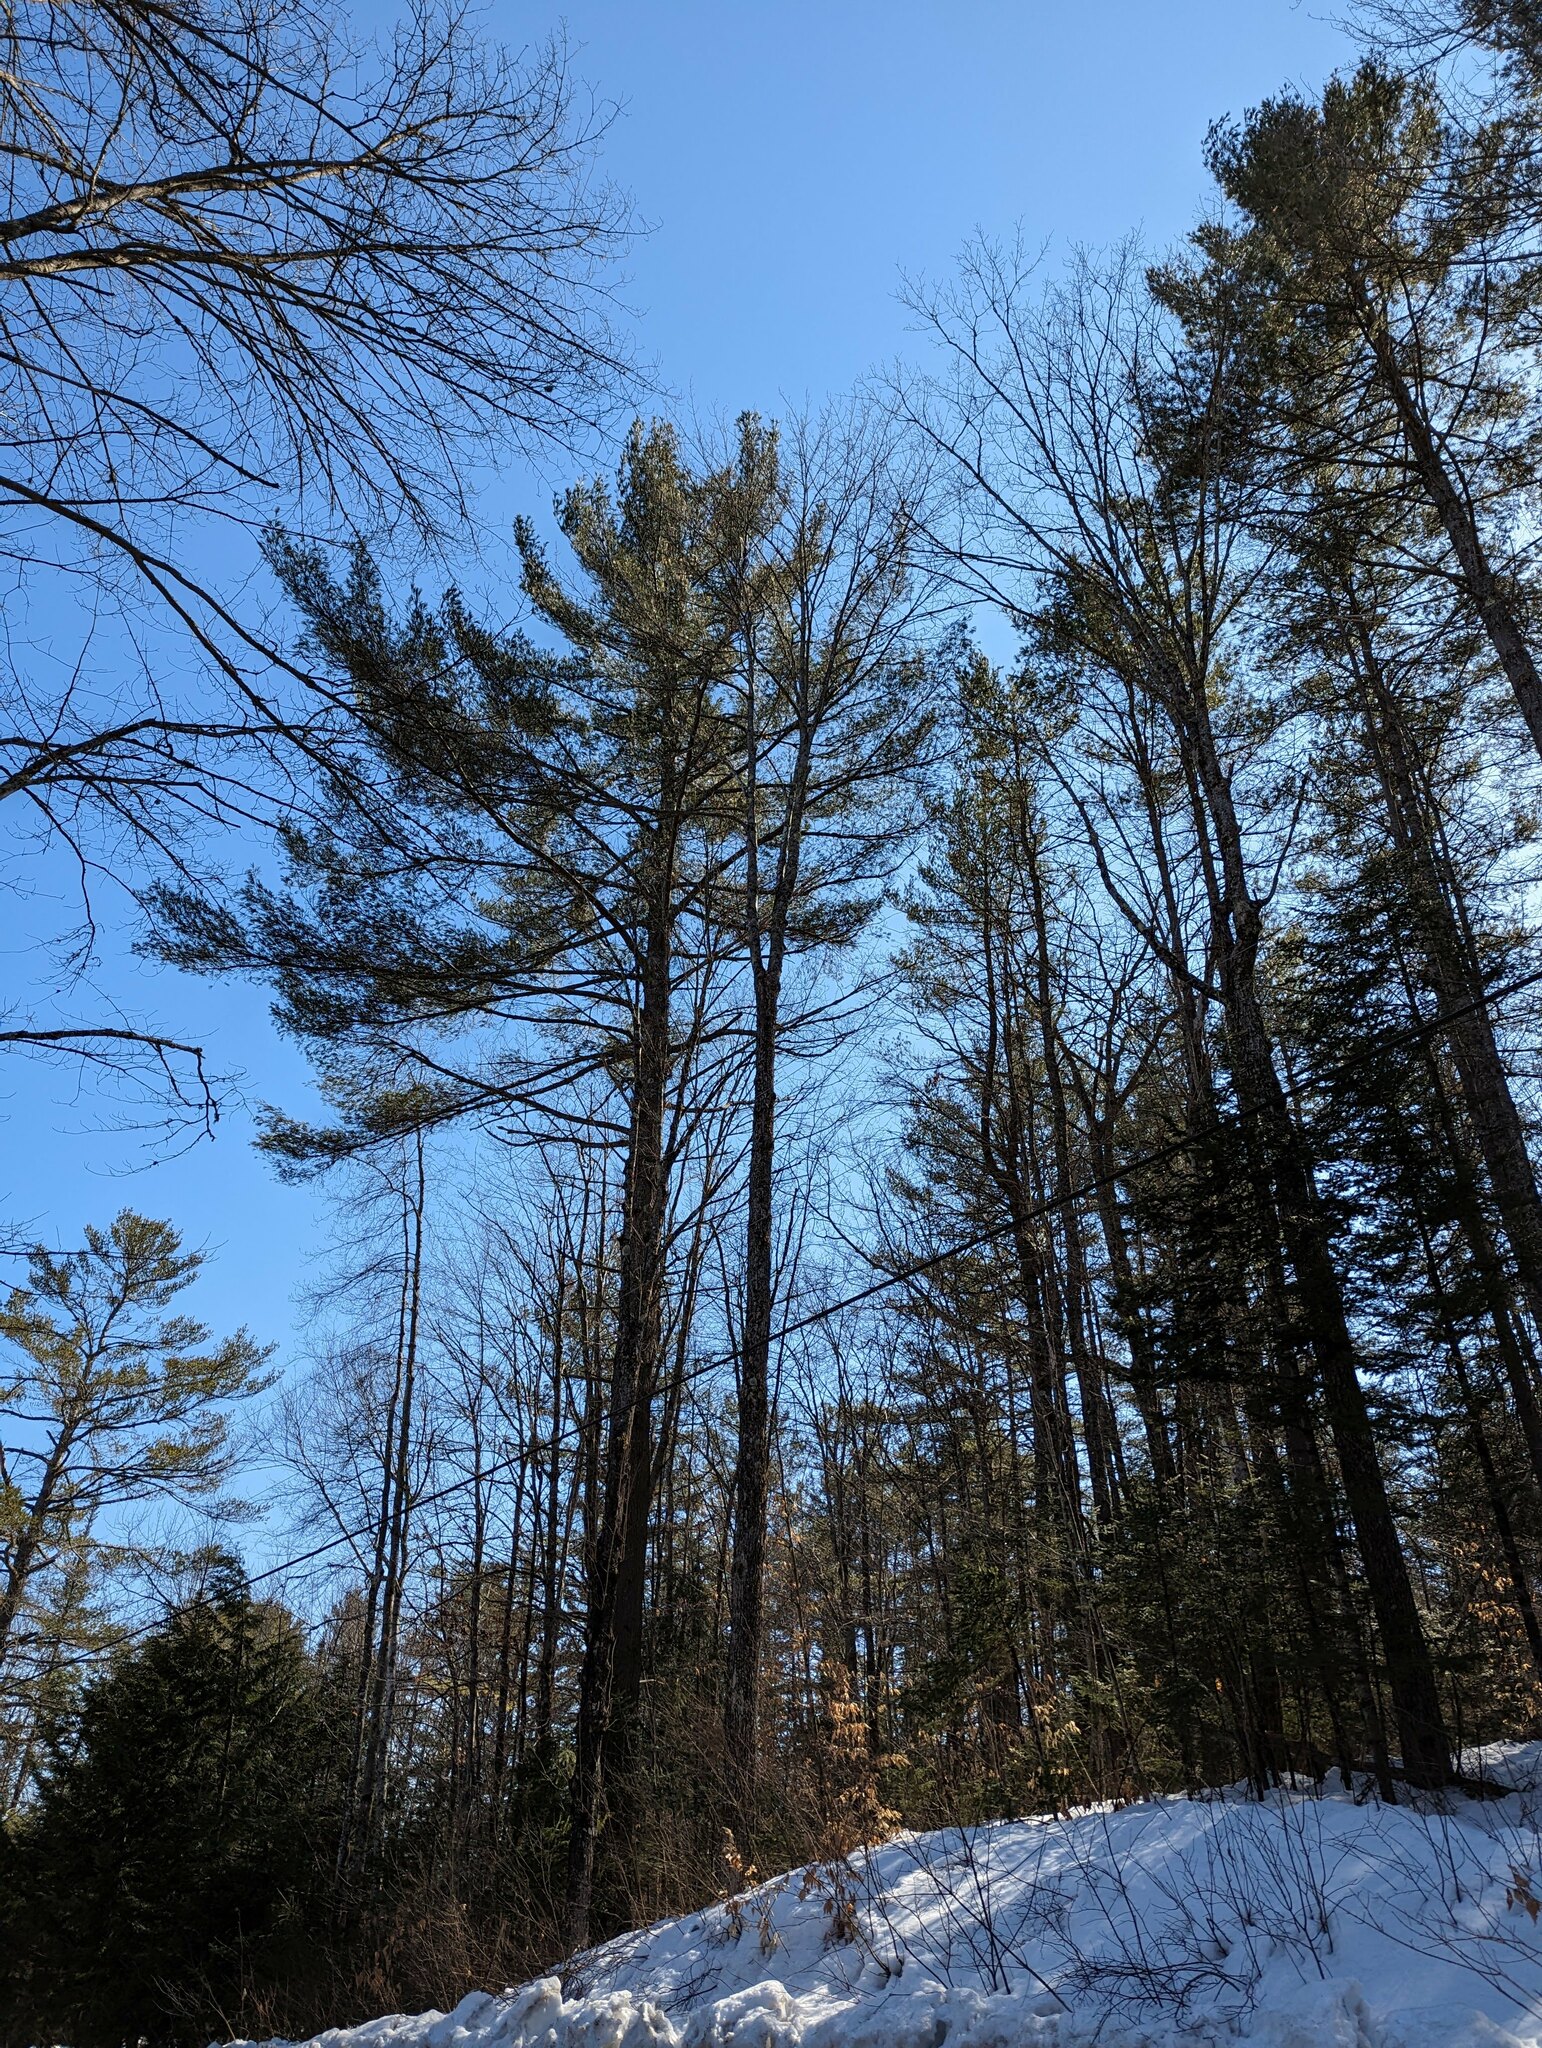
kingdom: Plantae
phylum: Tracheophyta
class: Pinopsida
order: Pinales
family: Pinaceae
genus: Pinus
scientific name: Pinus strobus
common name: Weymouth pine
